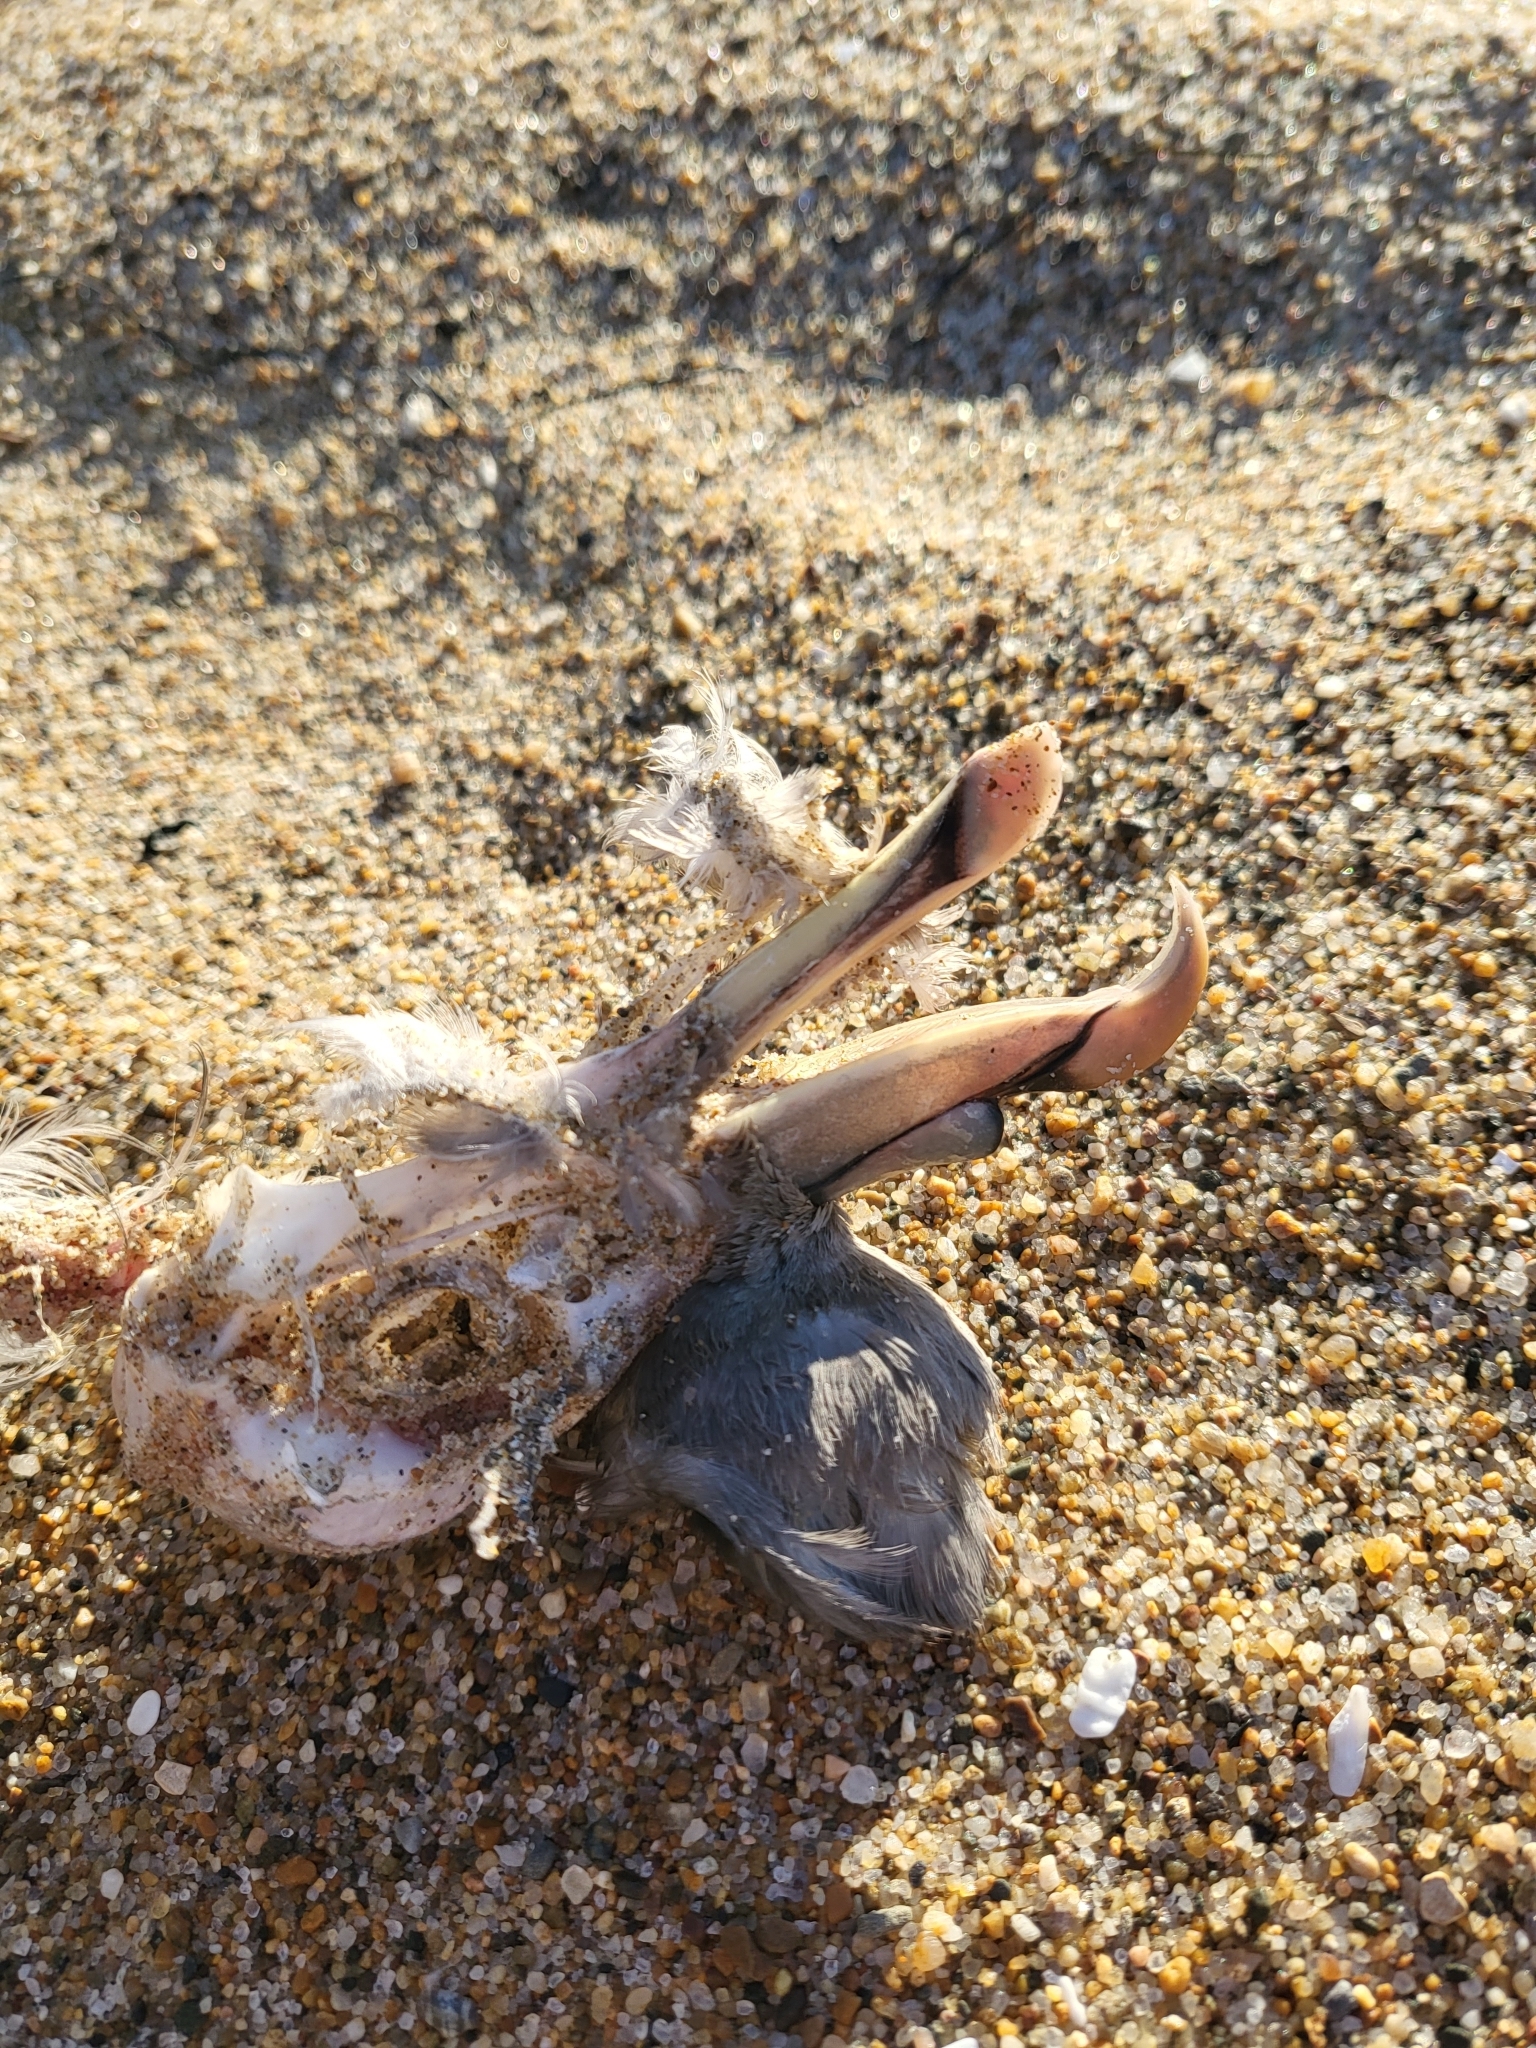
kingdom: Animalia
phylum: Chordata
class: Aves
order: Procellariiformes
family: Procellariidae
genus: Fulmarus
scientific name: Fulmarus glacialis
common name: Northern fulmar
